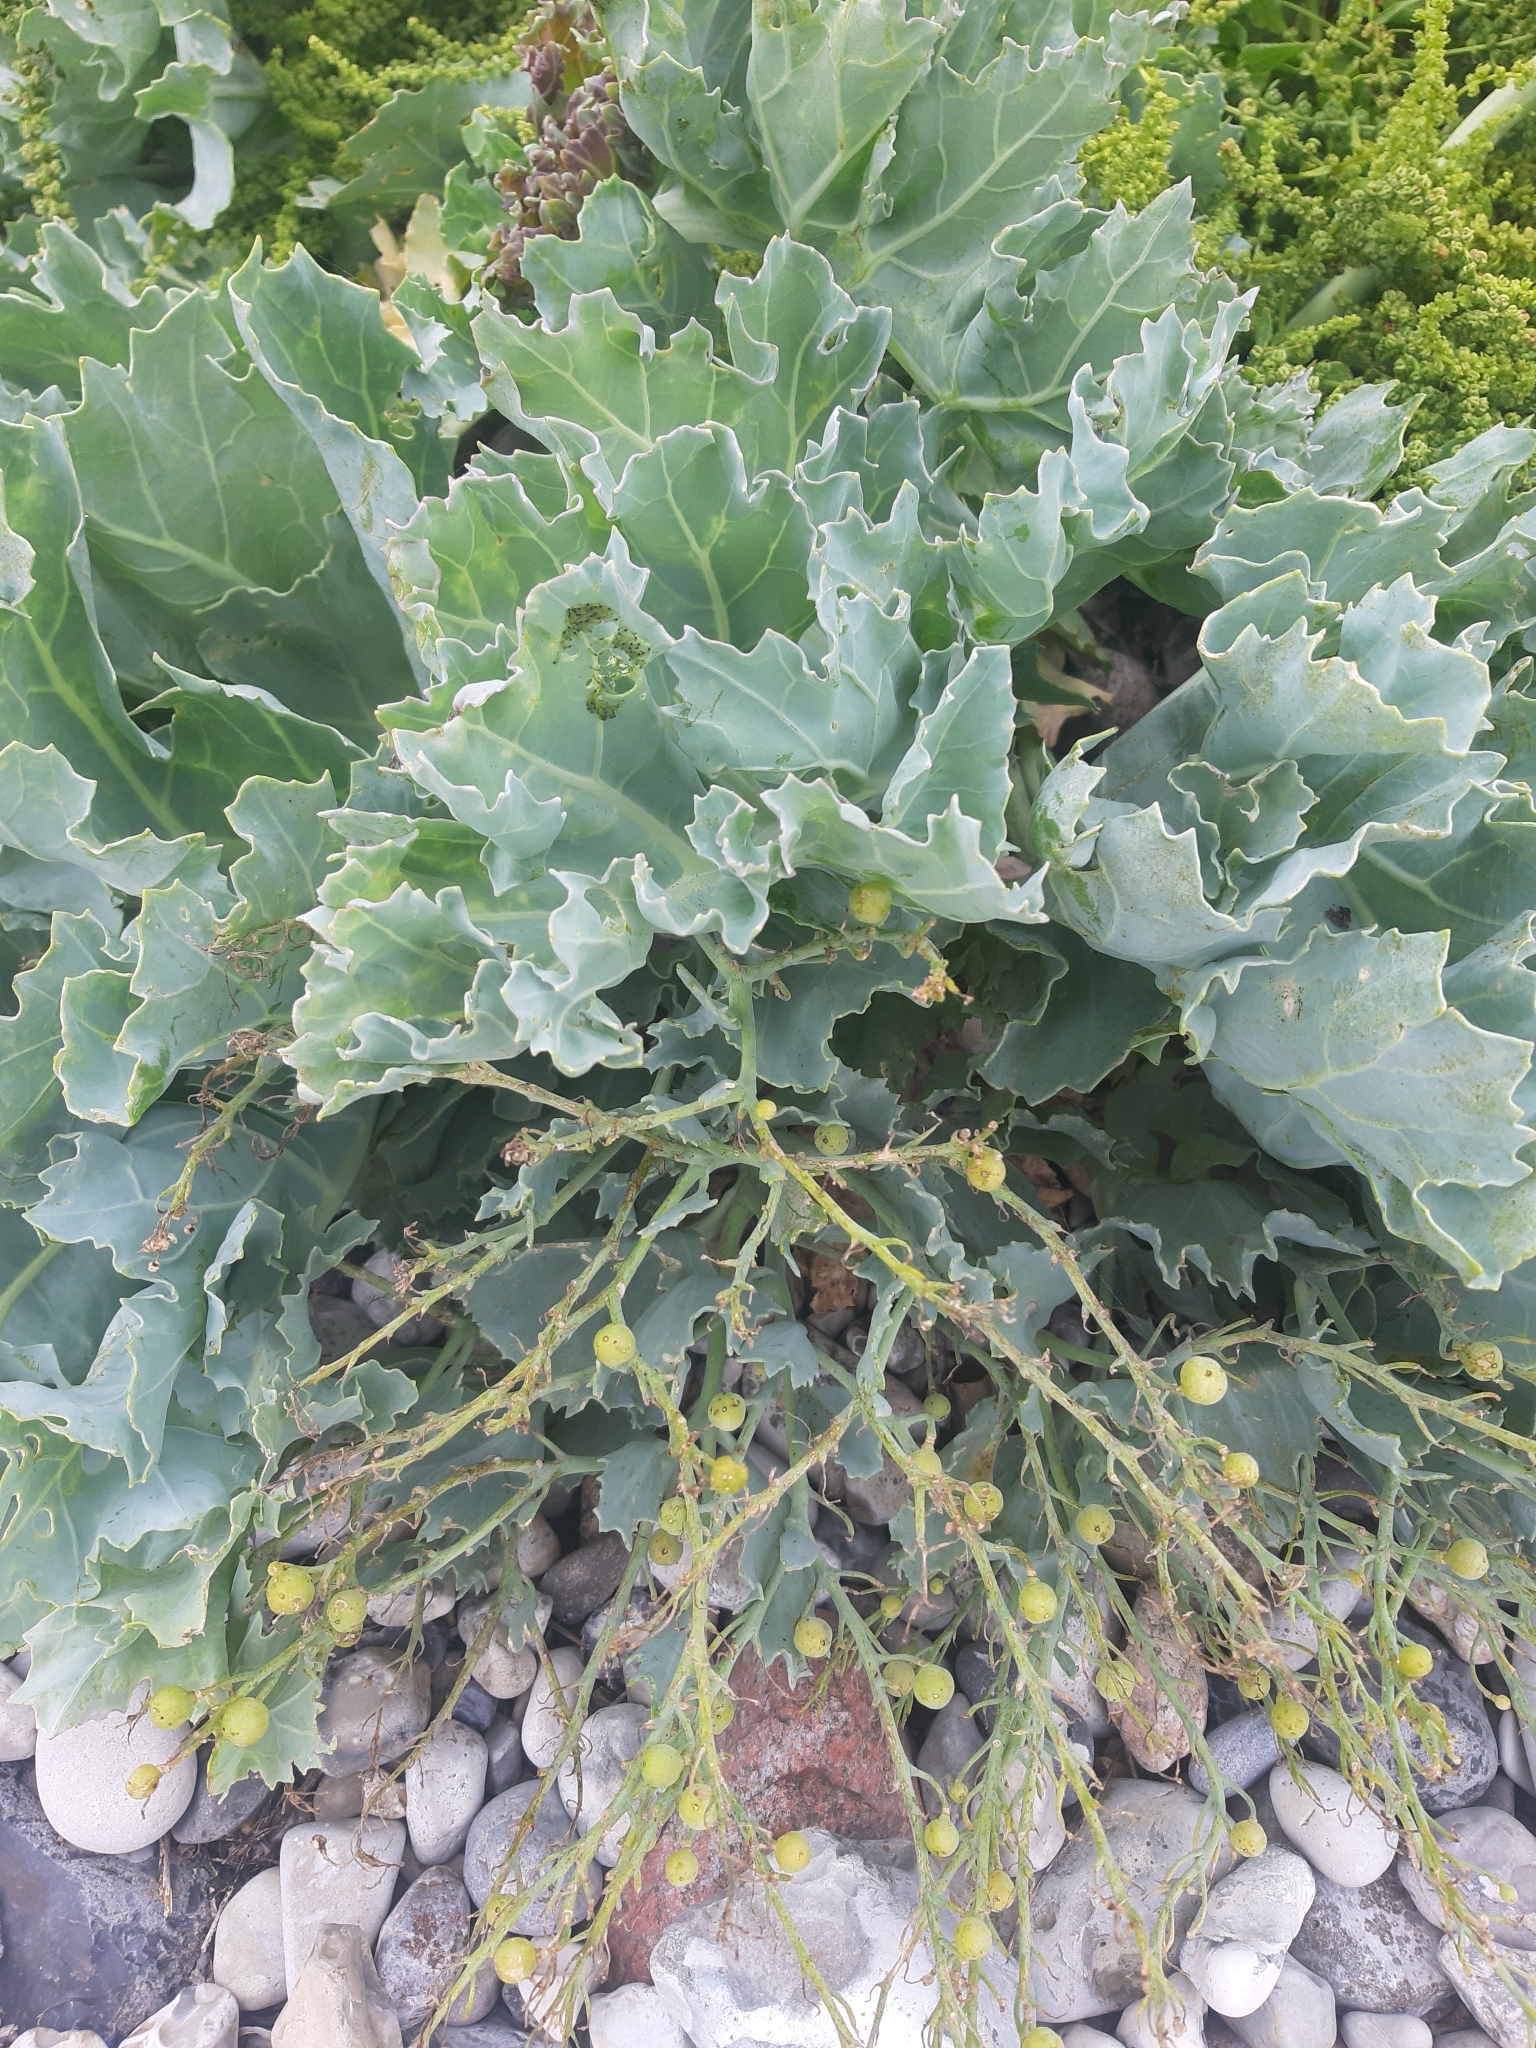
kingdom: Plantae
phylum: Tracheophyta
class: Magnoliopsida
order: Brassicales
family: Brassicaceae
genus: Crambe
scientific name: Crambe maritima
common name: Sea-kale
